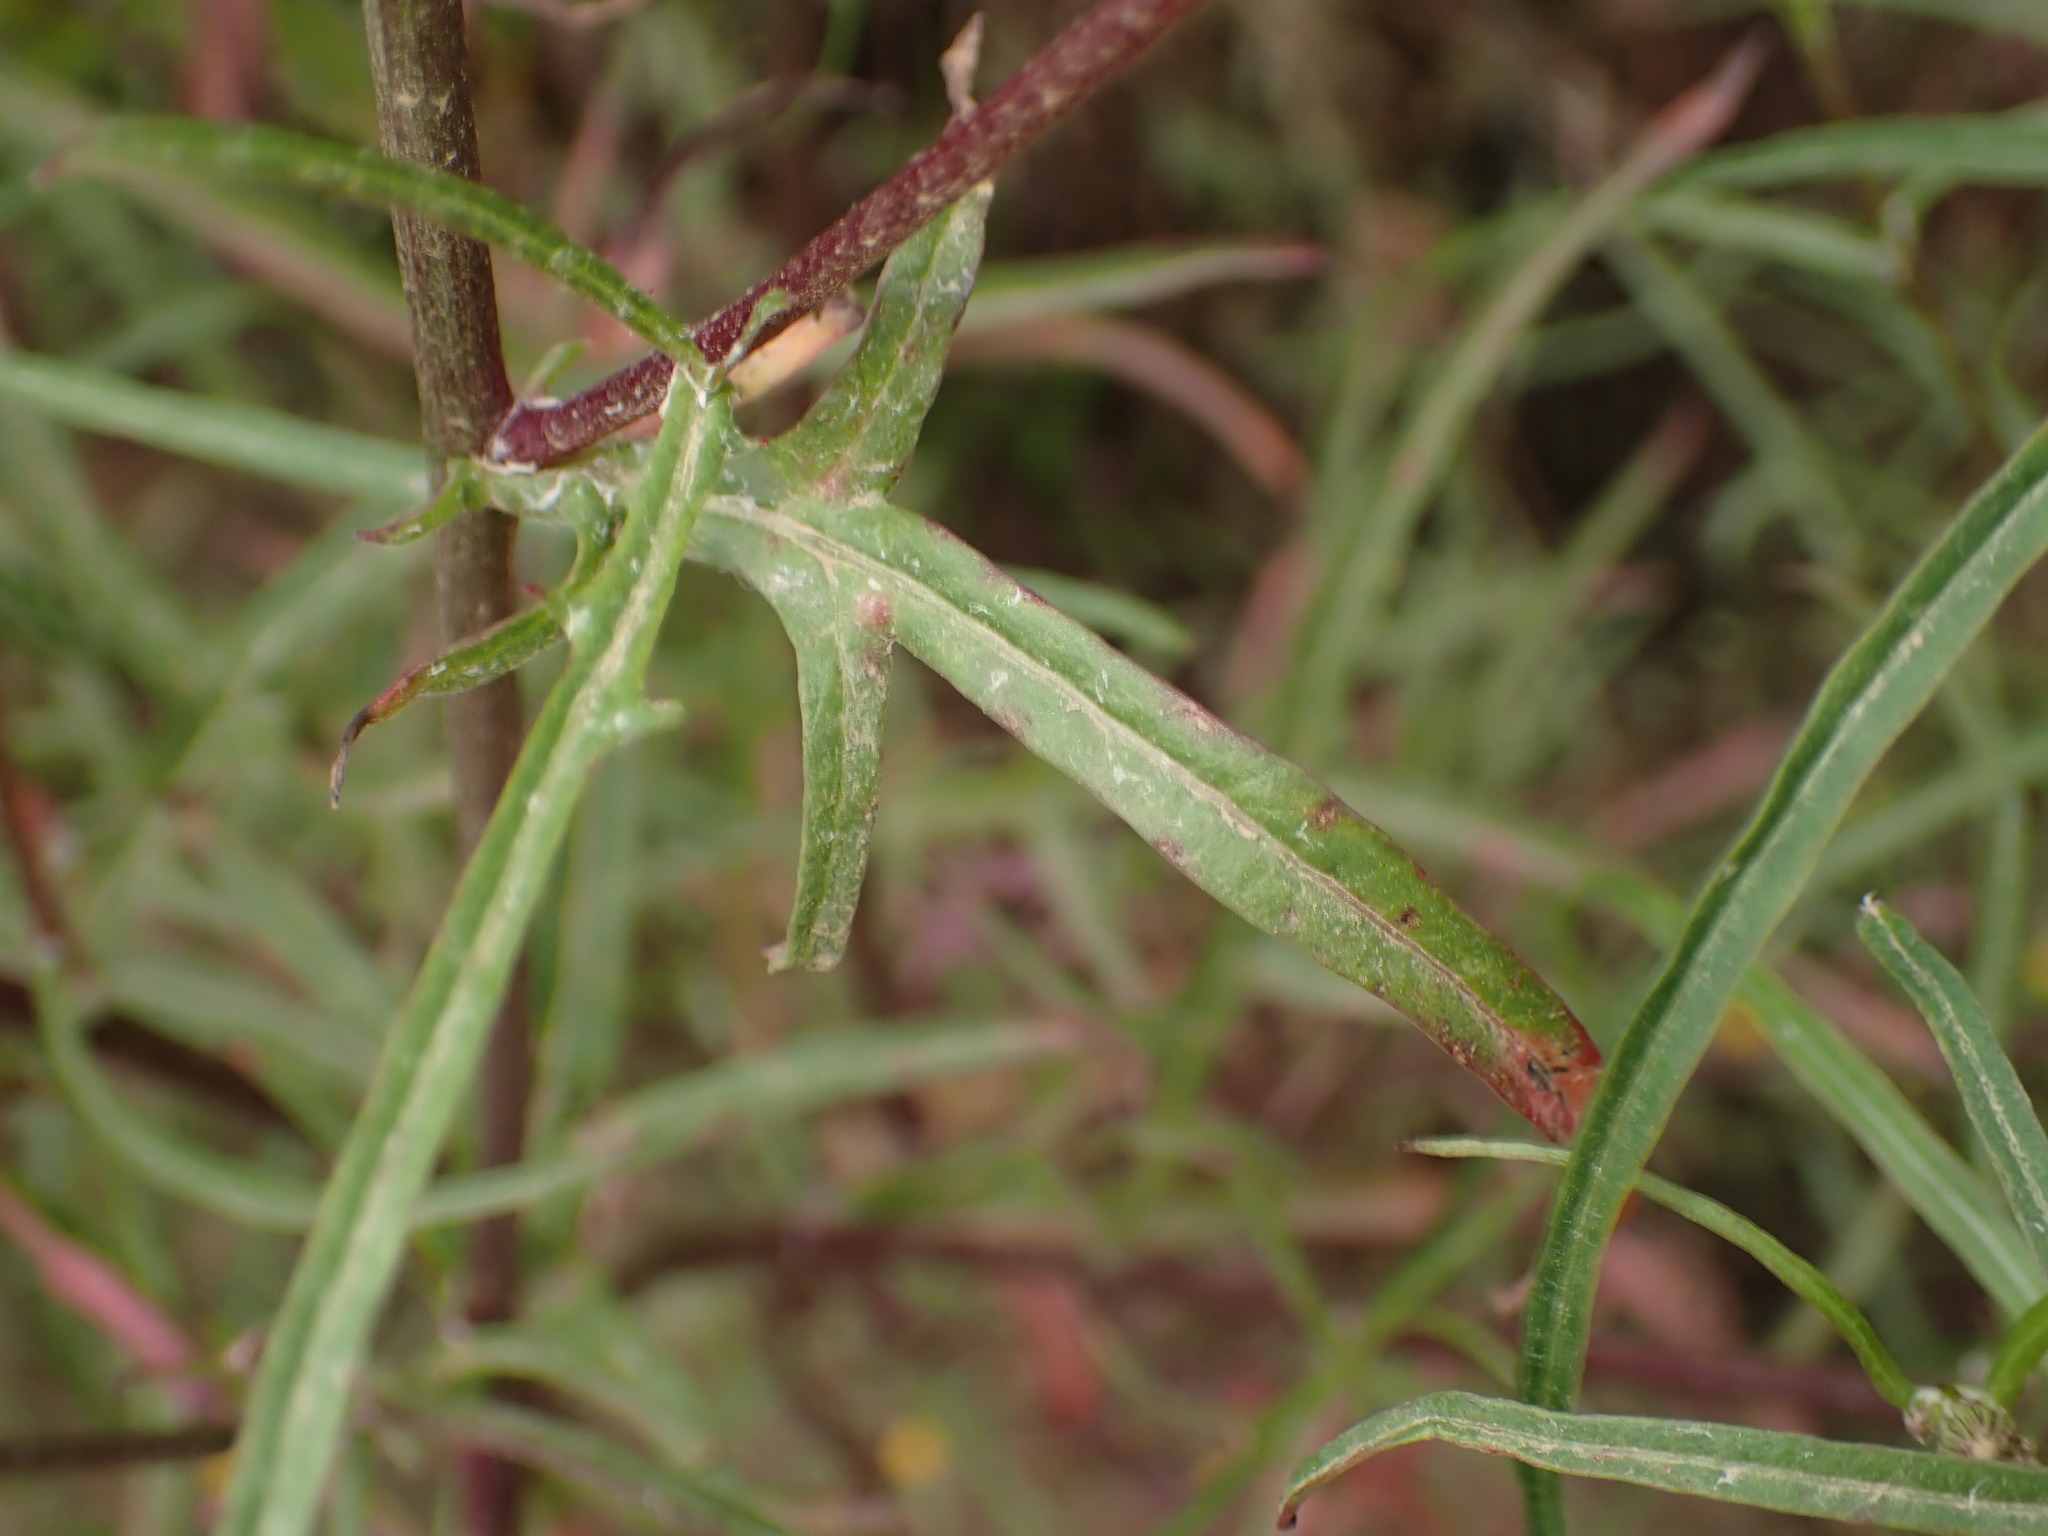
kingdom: Plantae
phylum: Tracheophyta
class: Magnoliopsida
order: Asterales
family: Asteraceae
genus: Malacothrix
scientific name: Malacothrix saxatilis
